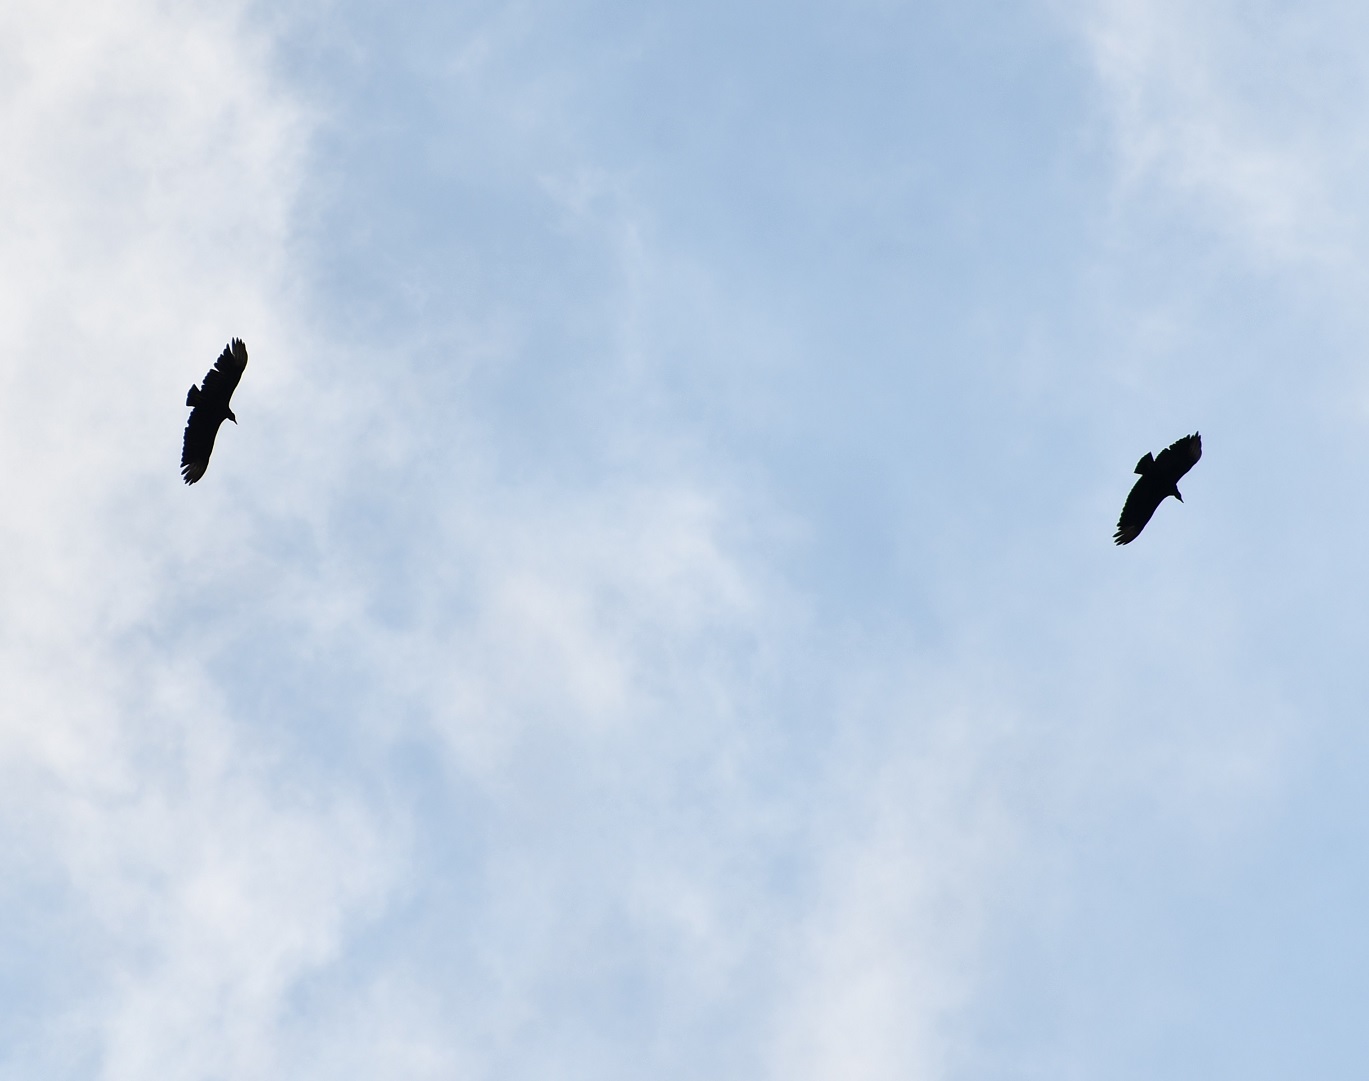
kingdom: Animalia
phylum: Chordata
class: Aves
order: Accipitriformes
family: Cathartidae
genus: Coragyps
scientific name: Coragyps atratus
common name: Black vulture
